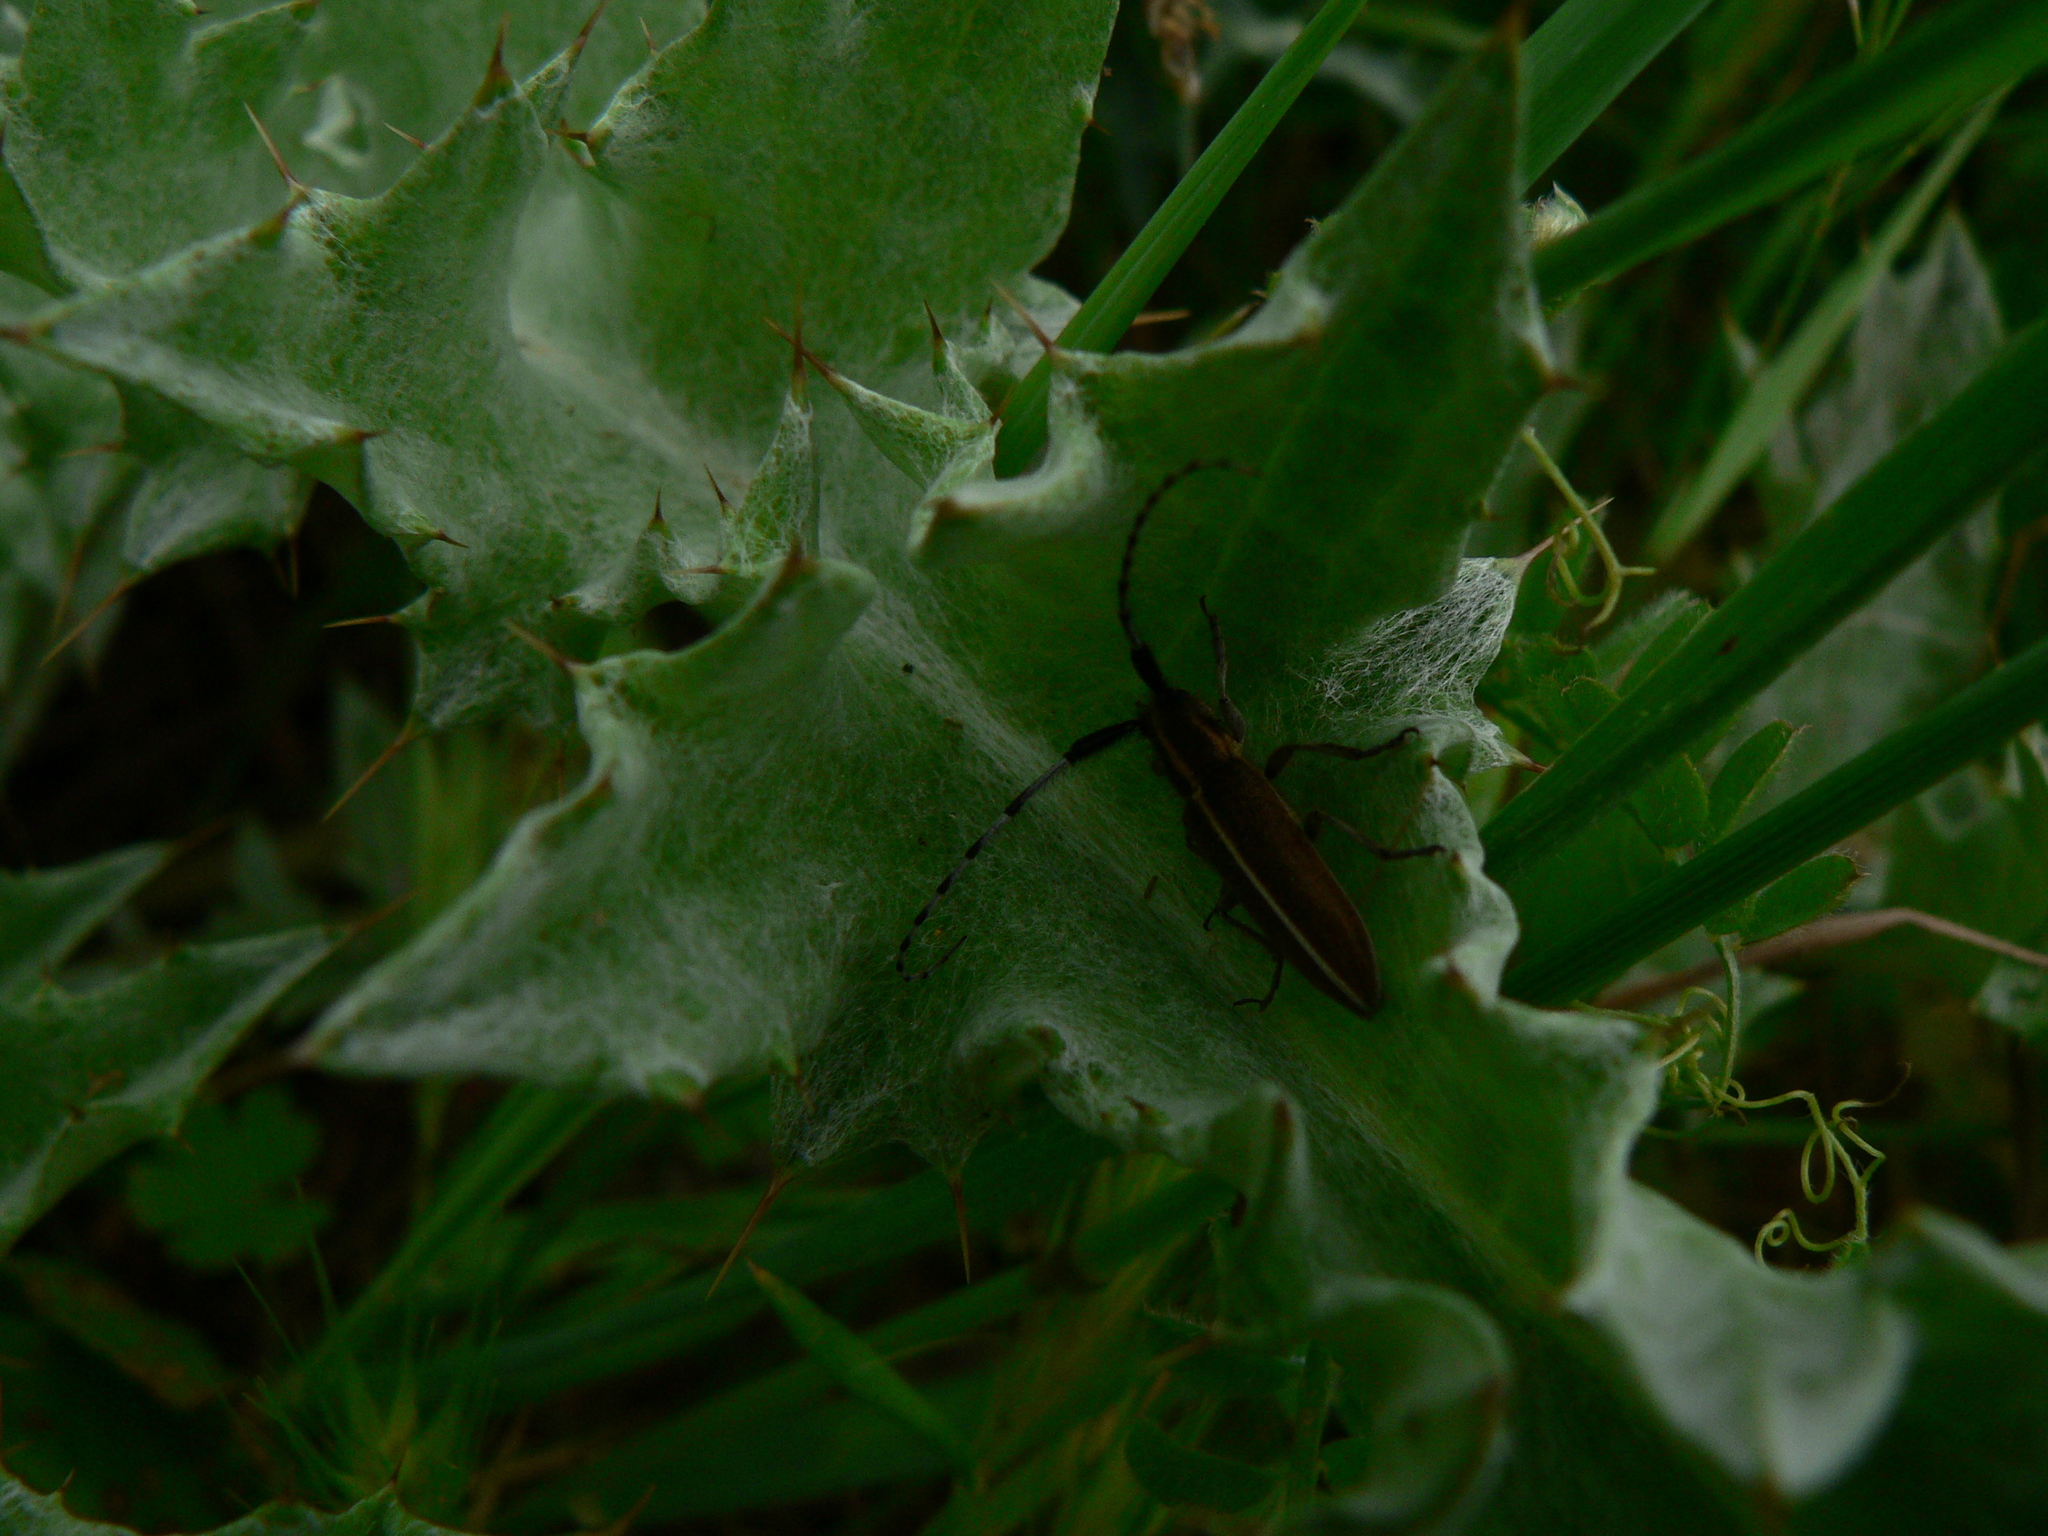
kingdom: Animalia
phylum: Arthropoda
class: Insecta
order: Coleoptera
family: Cerambycidae
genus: Agapanthia
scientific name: Agapanthia suturalis
